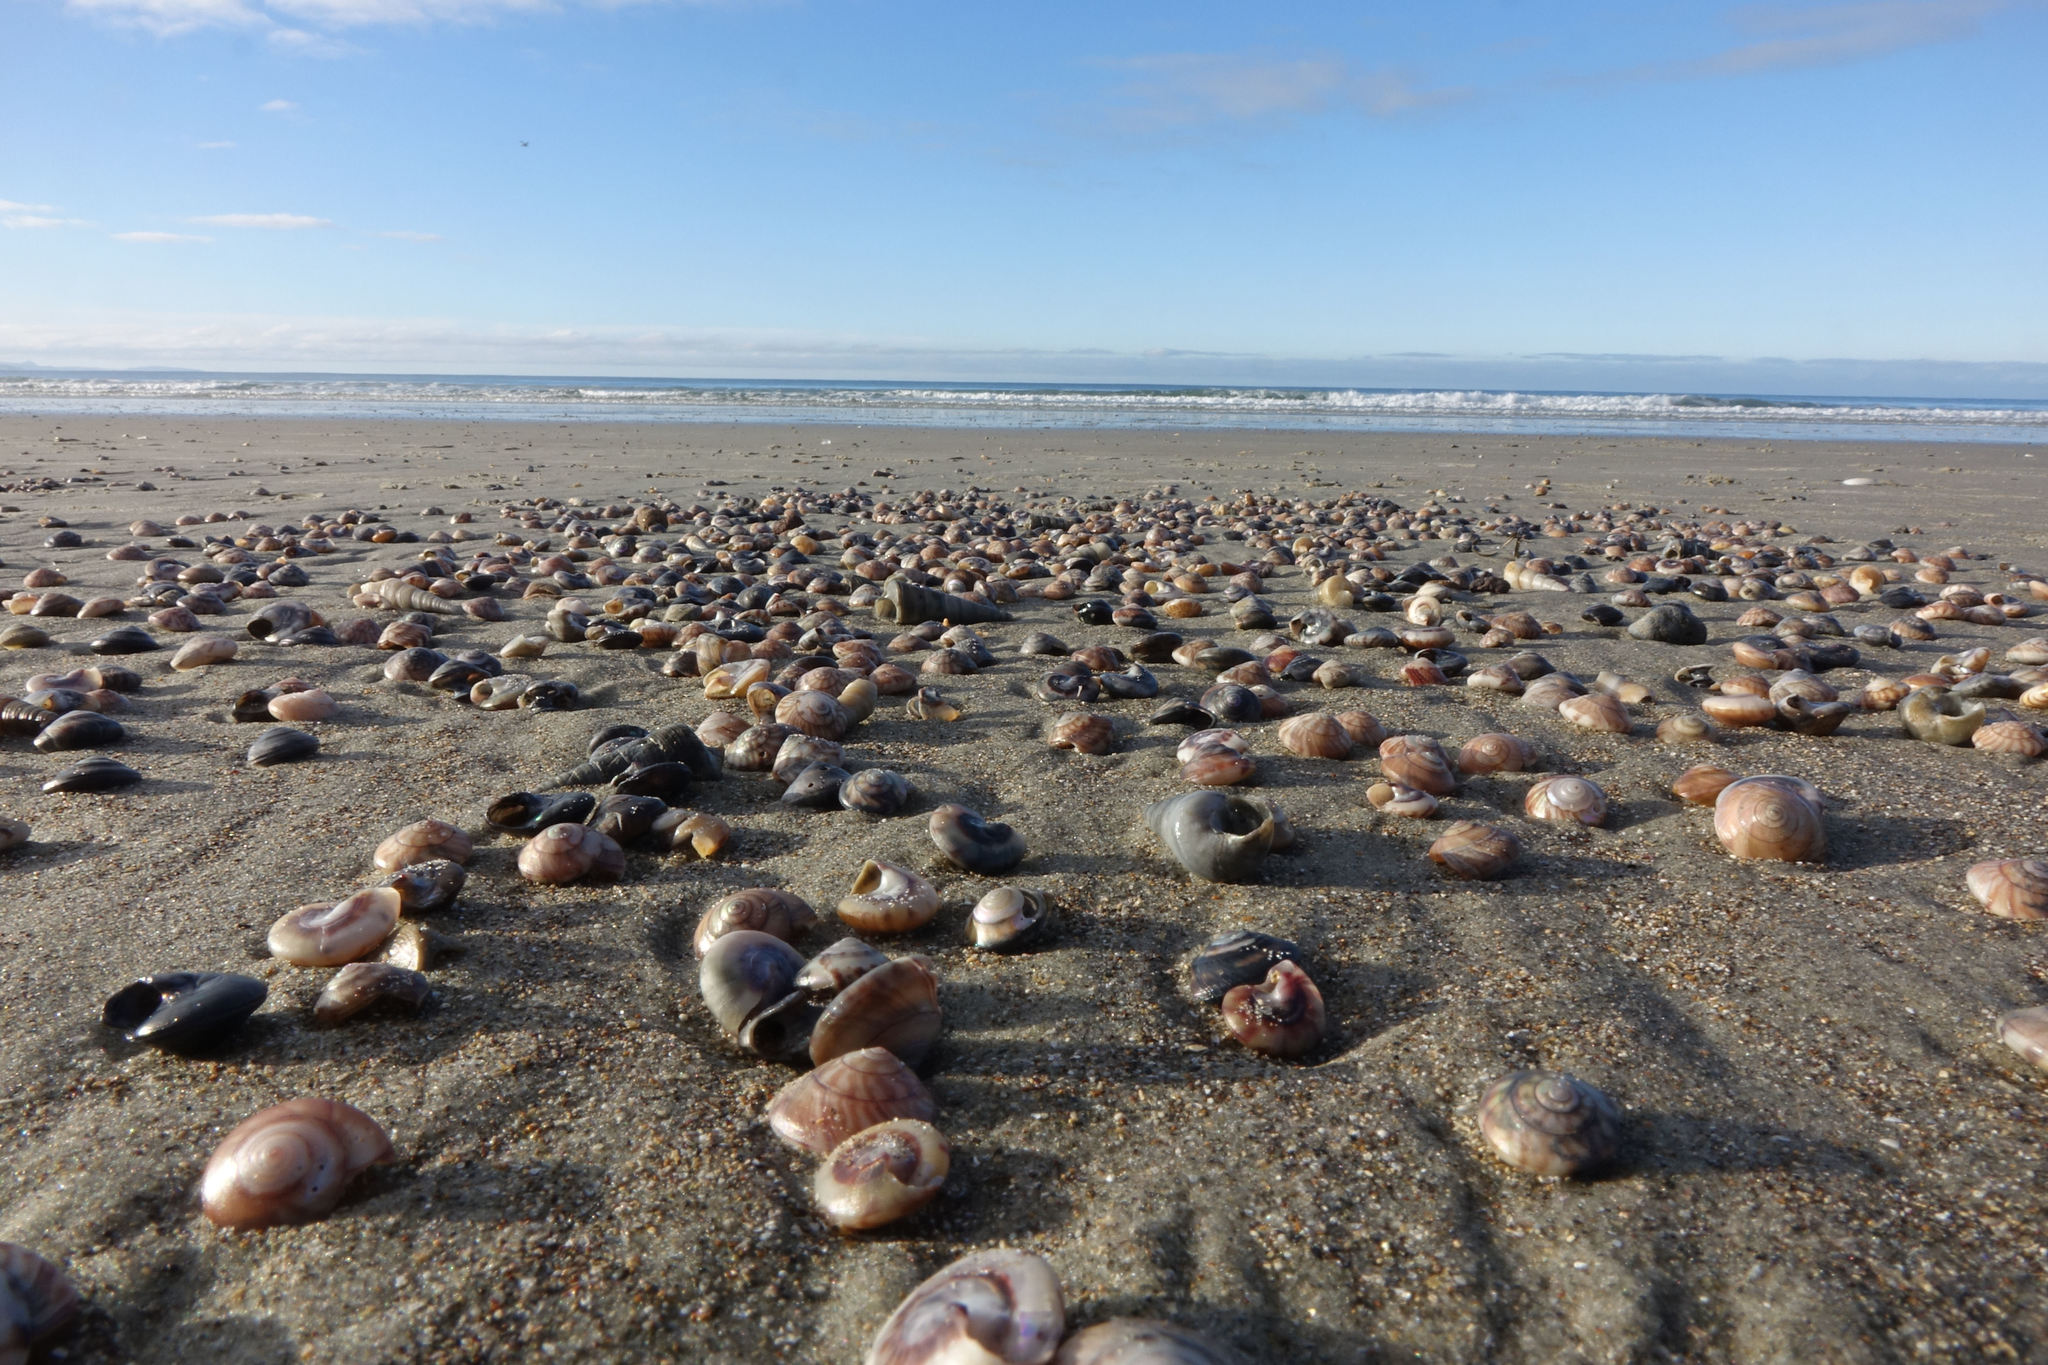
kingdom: Animalia
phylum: Mollusca
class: Gastropoda
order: Trochida
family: Trochidae
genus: Zethalia
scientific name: Zethalia zelandica
